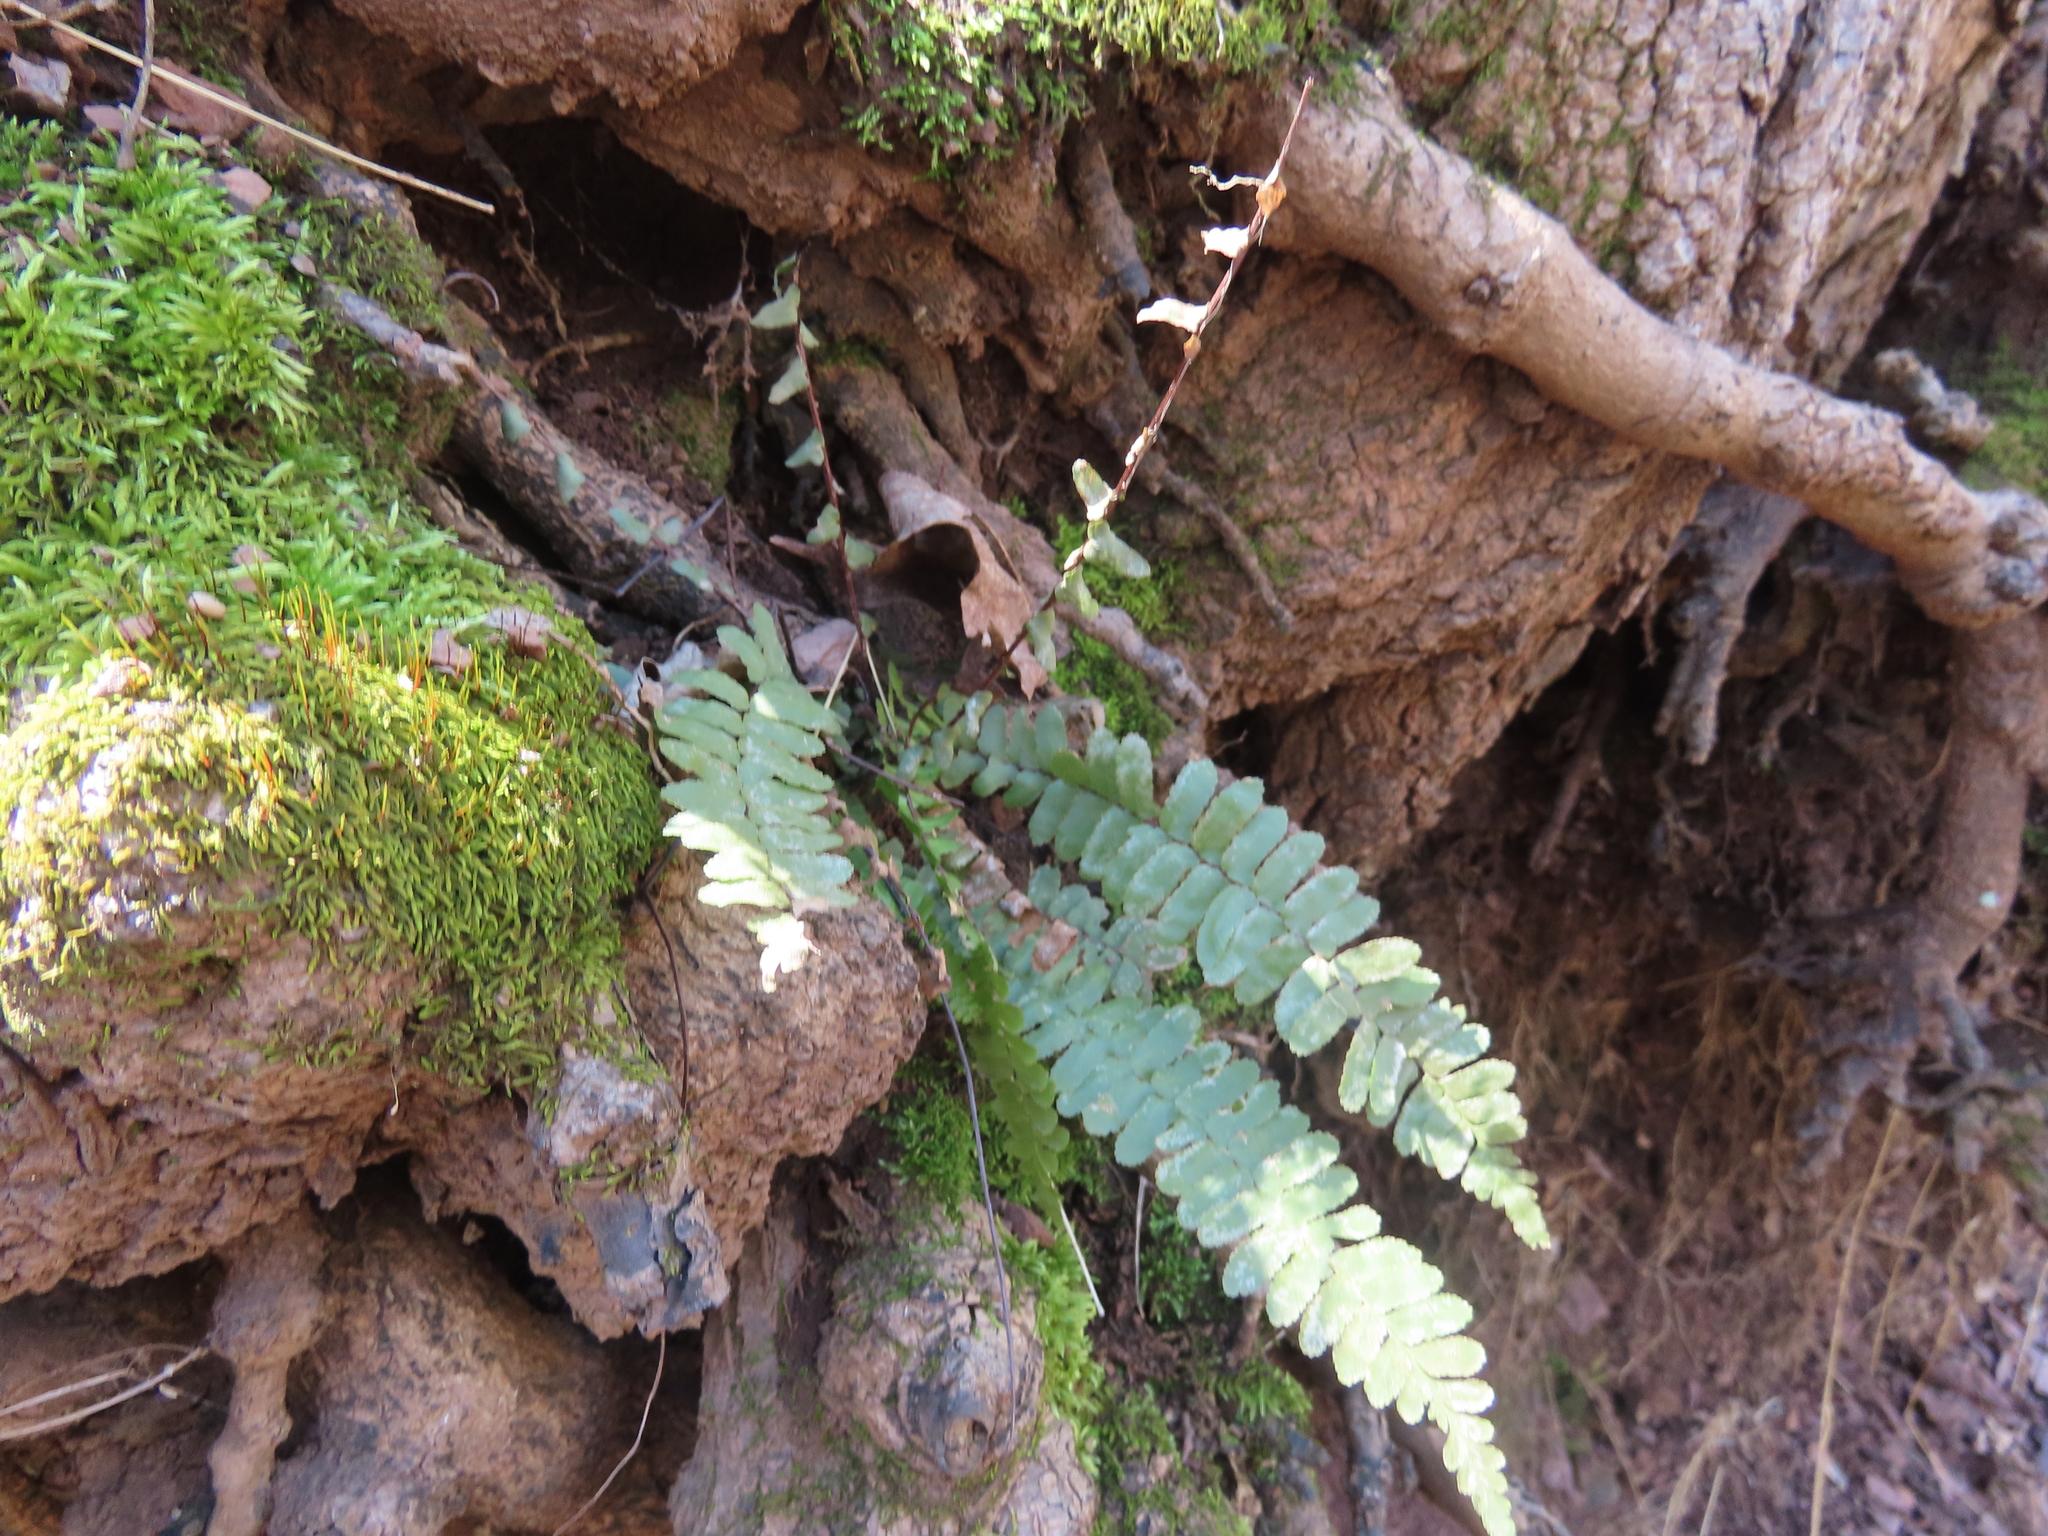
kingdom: Plantae
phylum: Tracheophyta
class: Polypodiopsida
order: Polypodiales
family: Aspleniaceae
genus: Asplenium
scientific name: Asplenium platyneuron
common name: Ebony spleenwort
